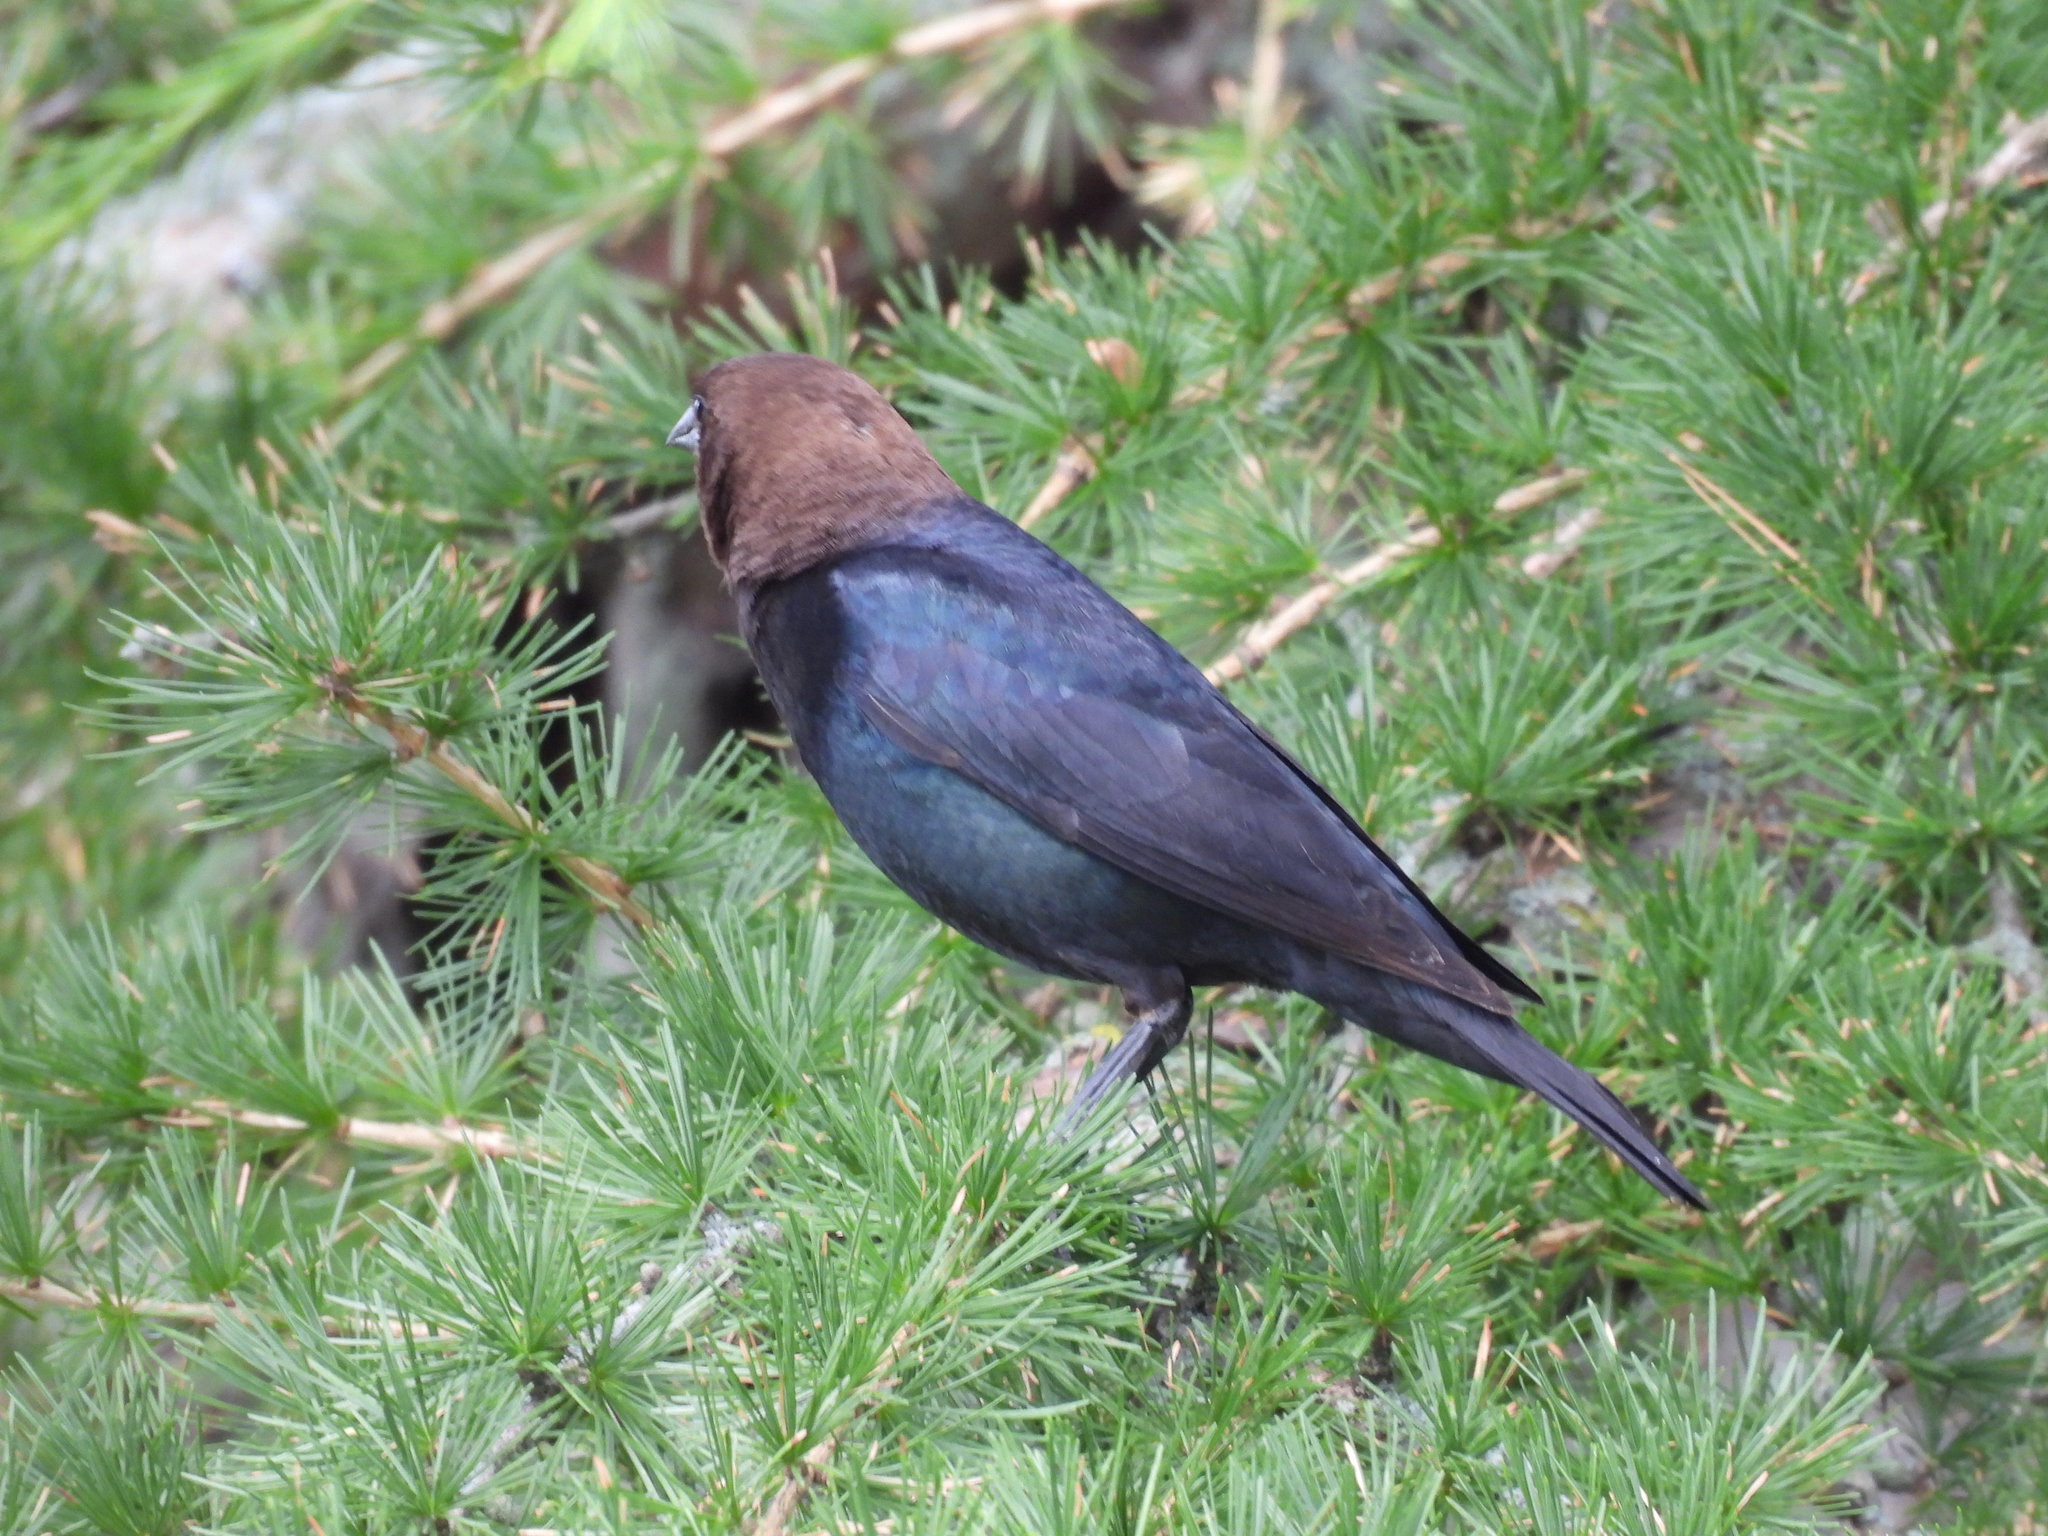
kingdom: Animalia
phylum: Chordata
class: Aves
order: Passeriformes
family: Icteridae
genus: Molothrus
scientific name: Molothrus ater
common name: Brown-headed cowbird
